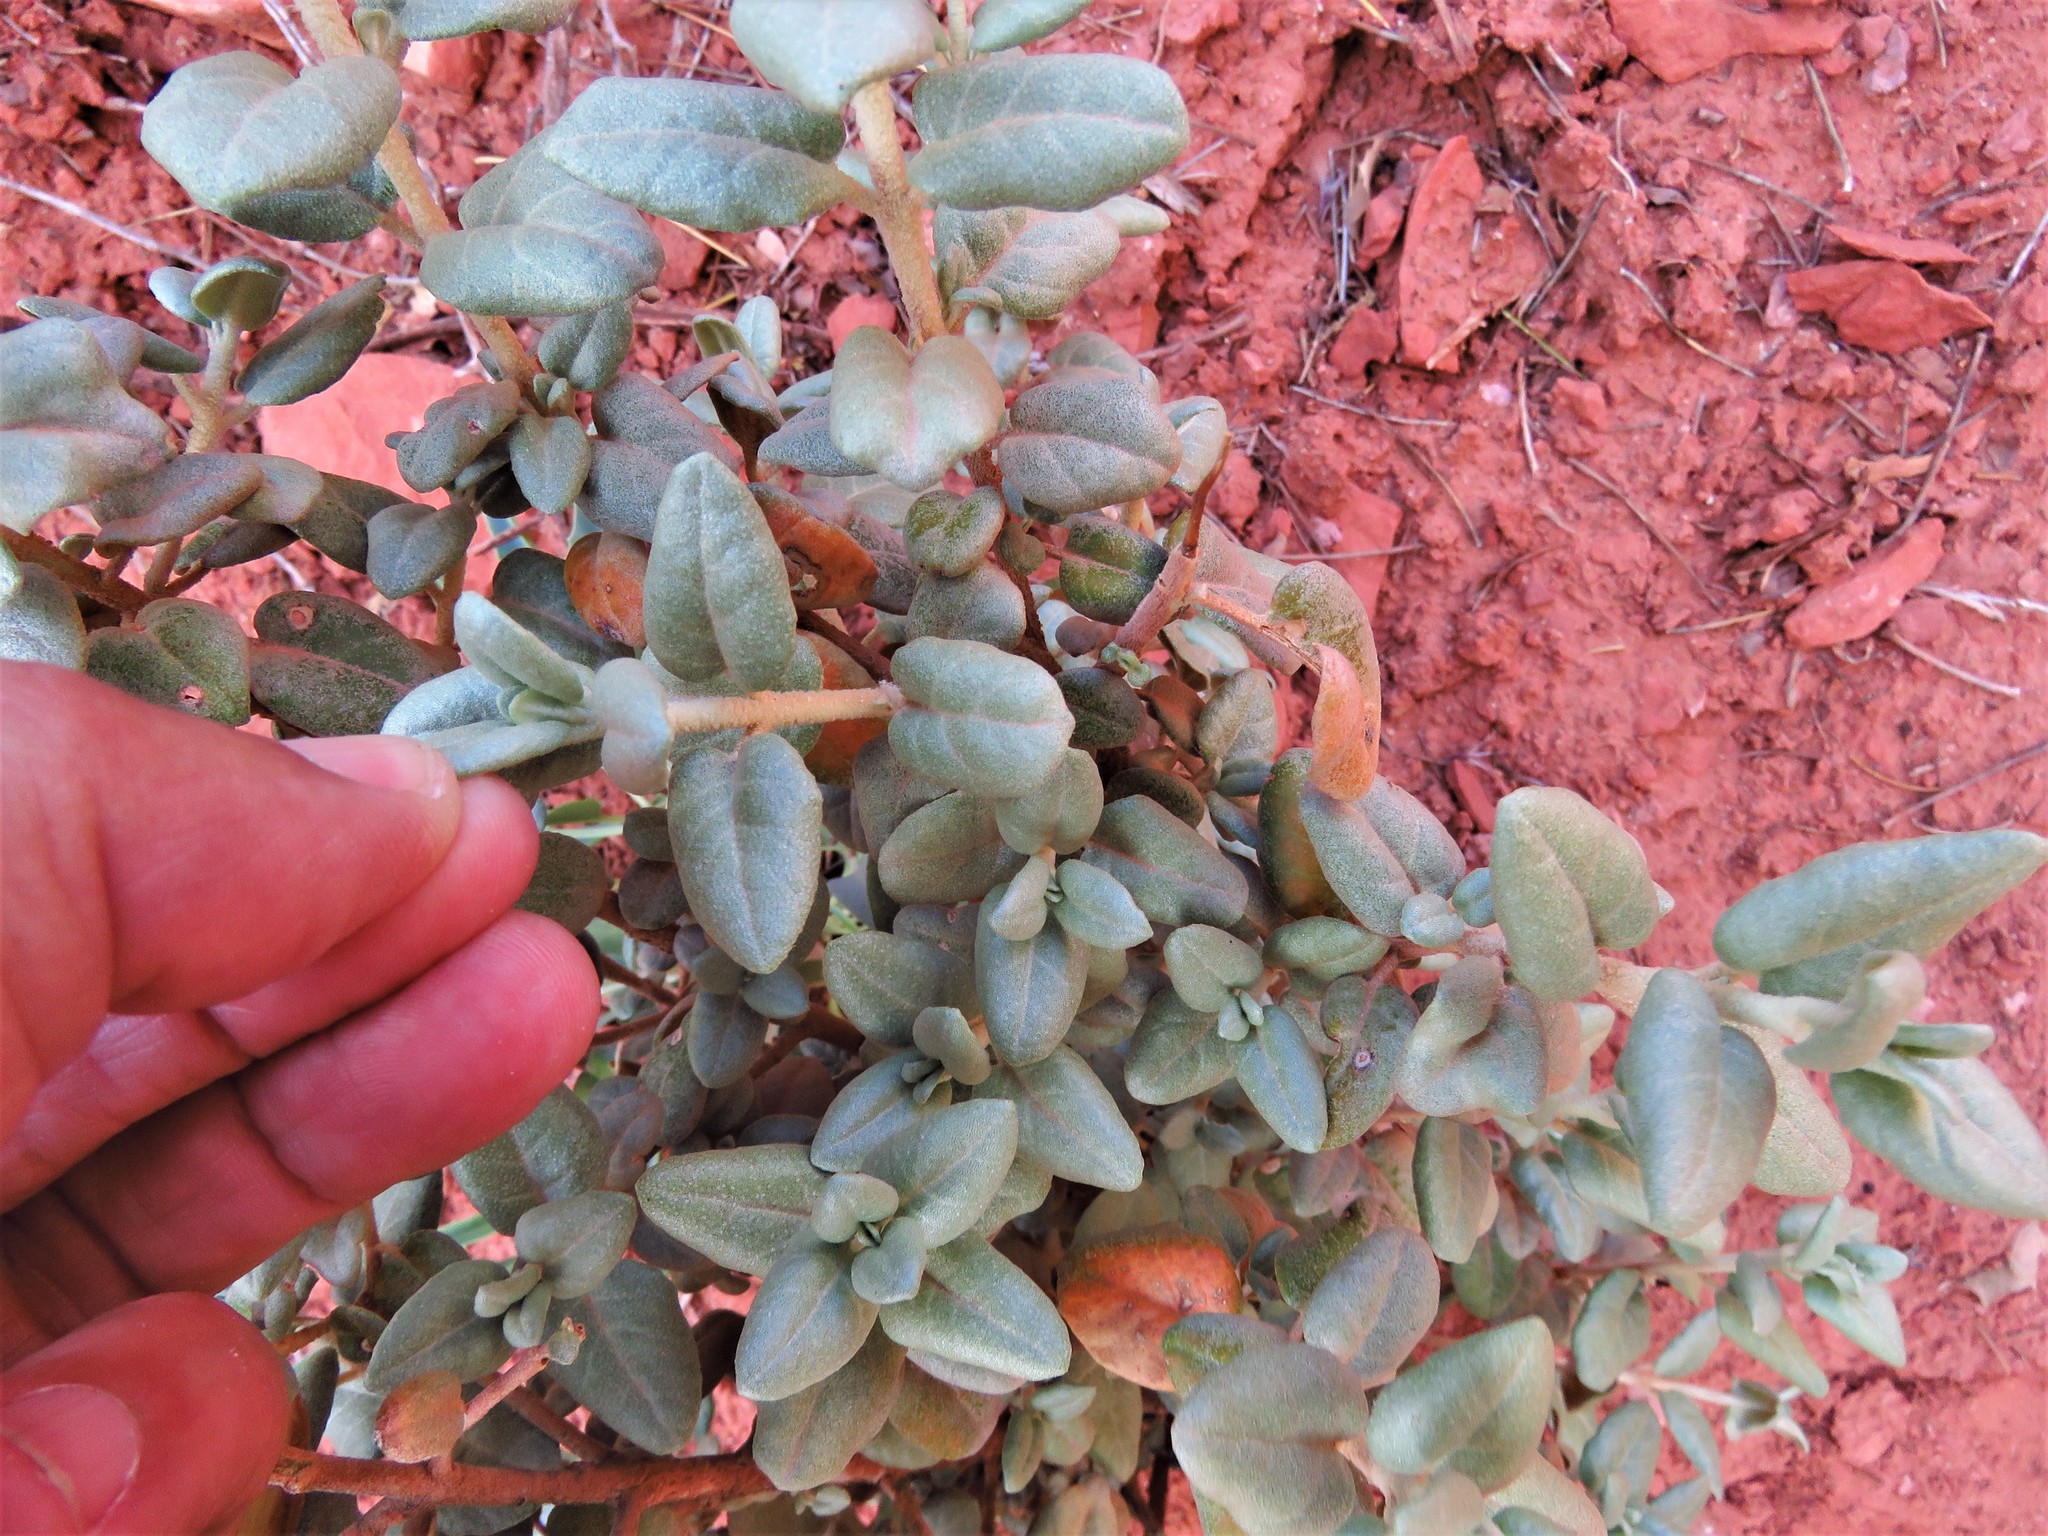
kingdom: Plantae
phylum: Tracheophyta
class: Magnoliopsida
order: Rosales
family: Elaeagnaceae
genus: Shepherdia
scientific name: Shepherdia rotundifolia
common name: Silverscale
